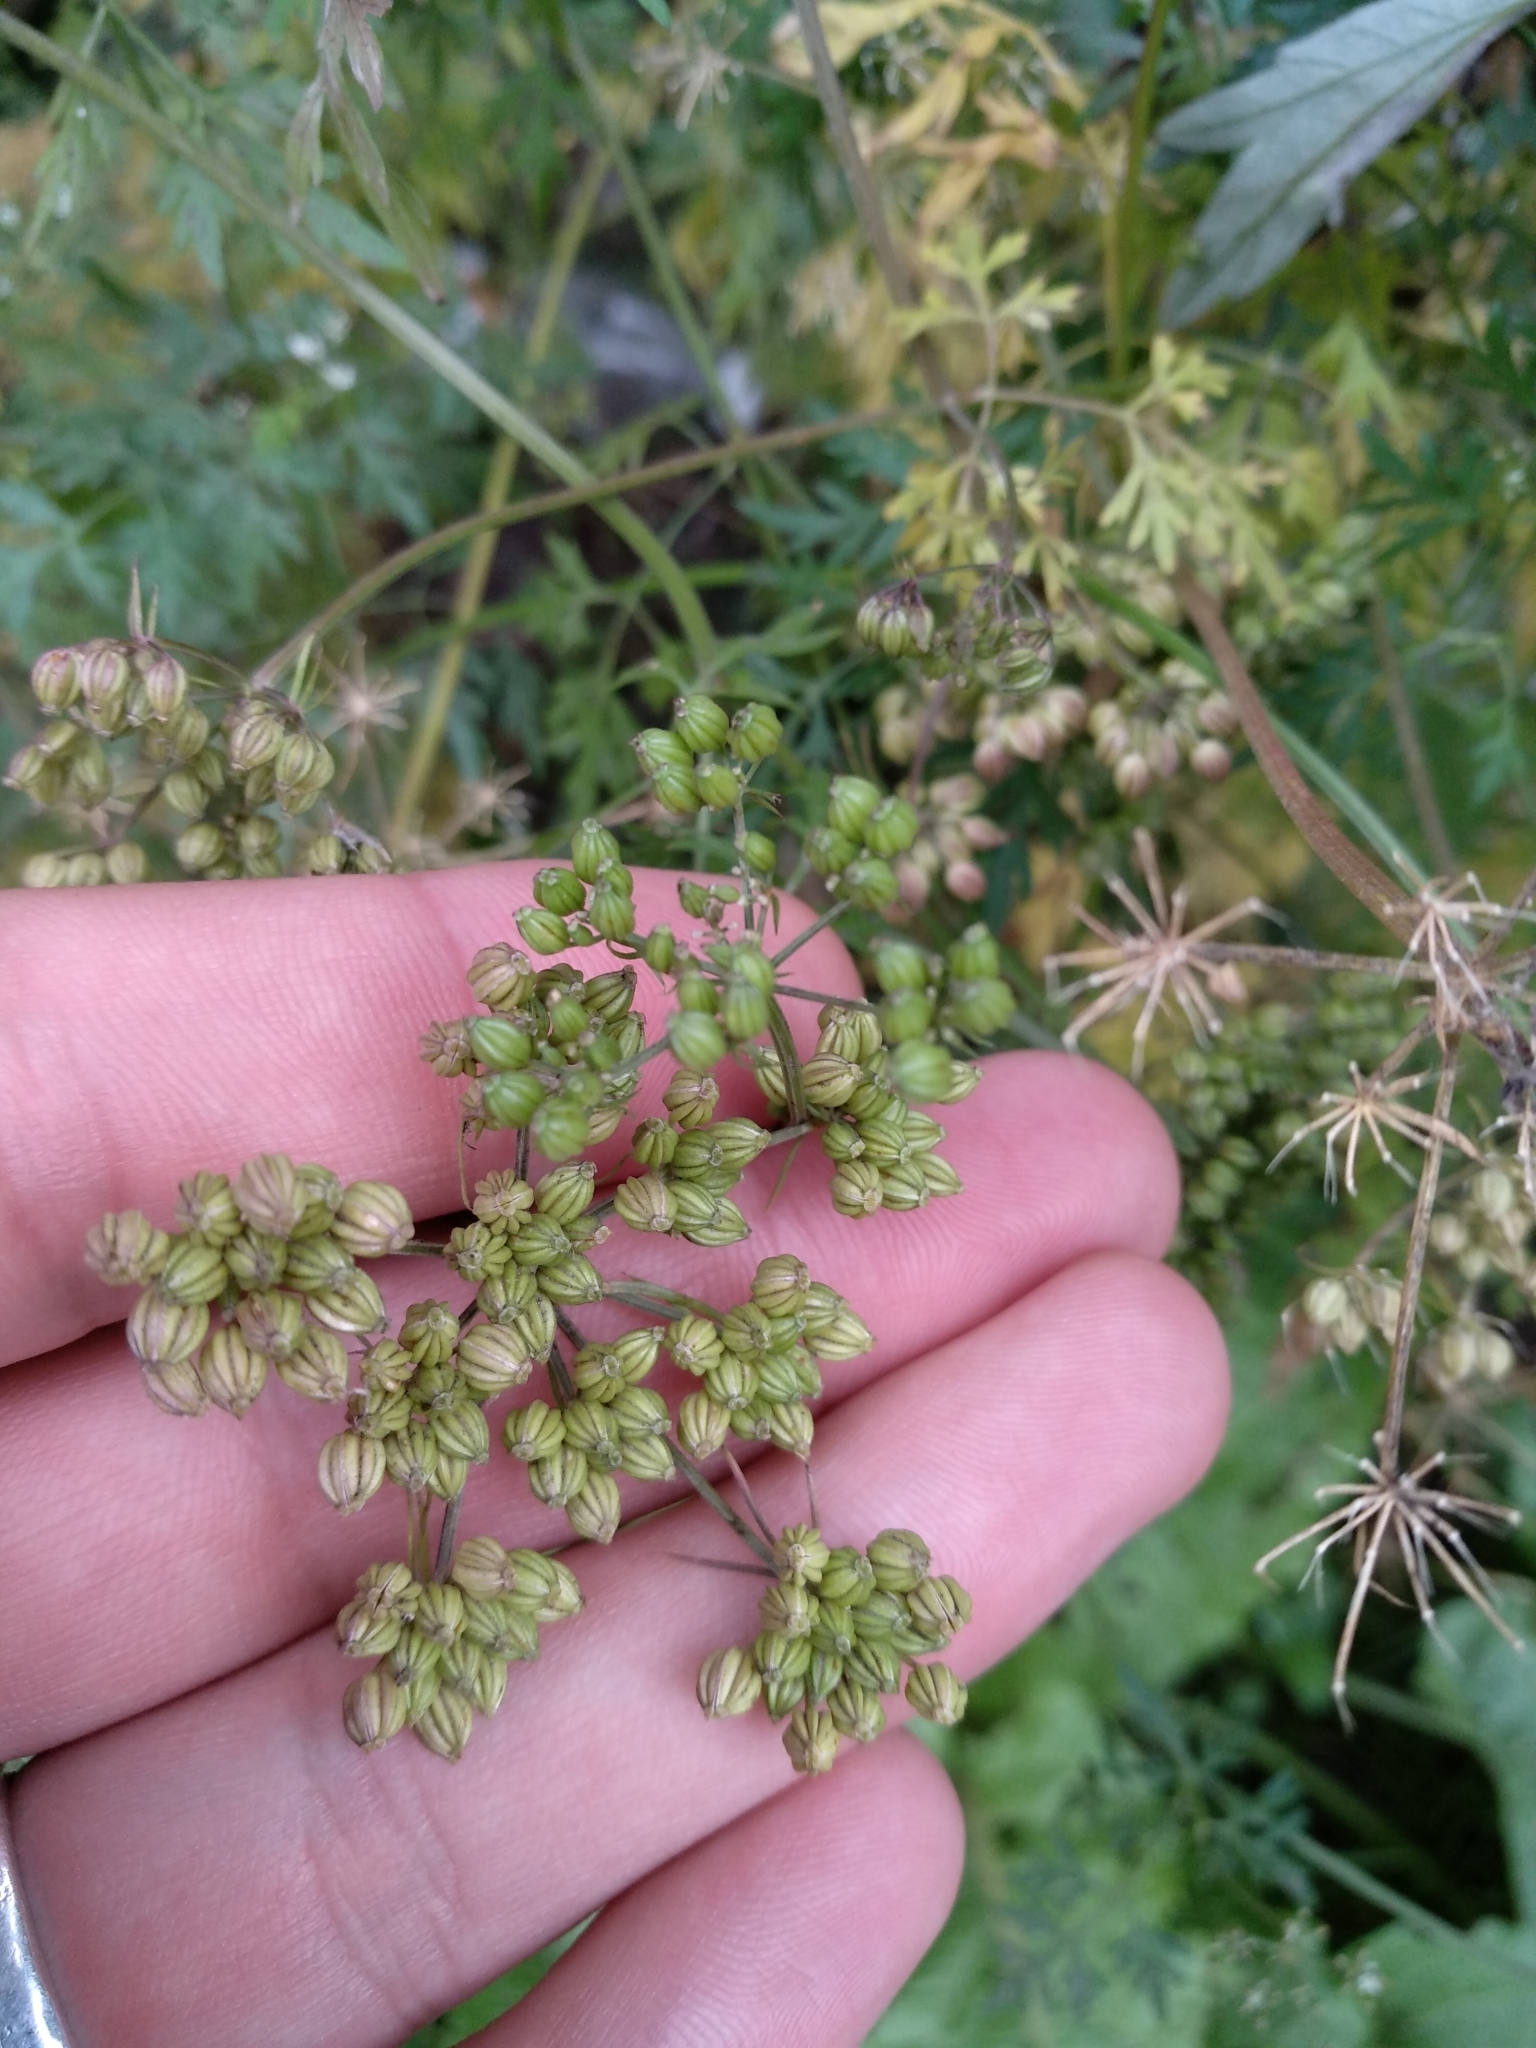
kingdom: Plantae
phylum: Tracheophyta
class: Magnoliopsida
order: Apiales
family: Apiaceae
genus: Aethusa
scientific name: Aethusa cynapium
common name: Fool's parsley
